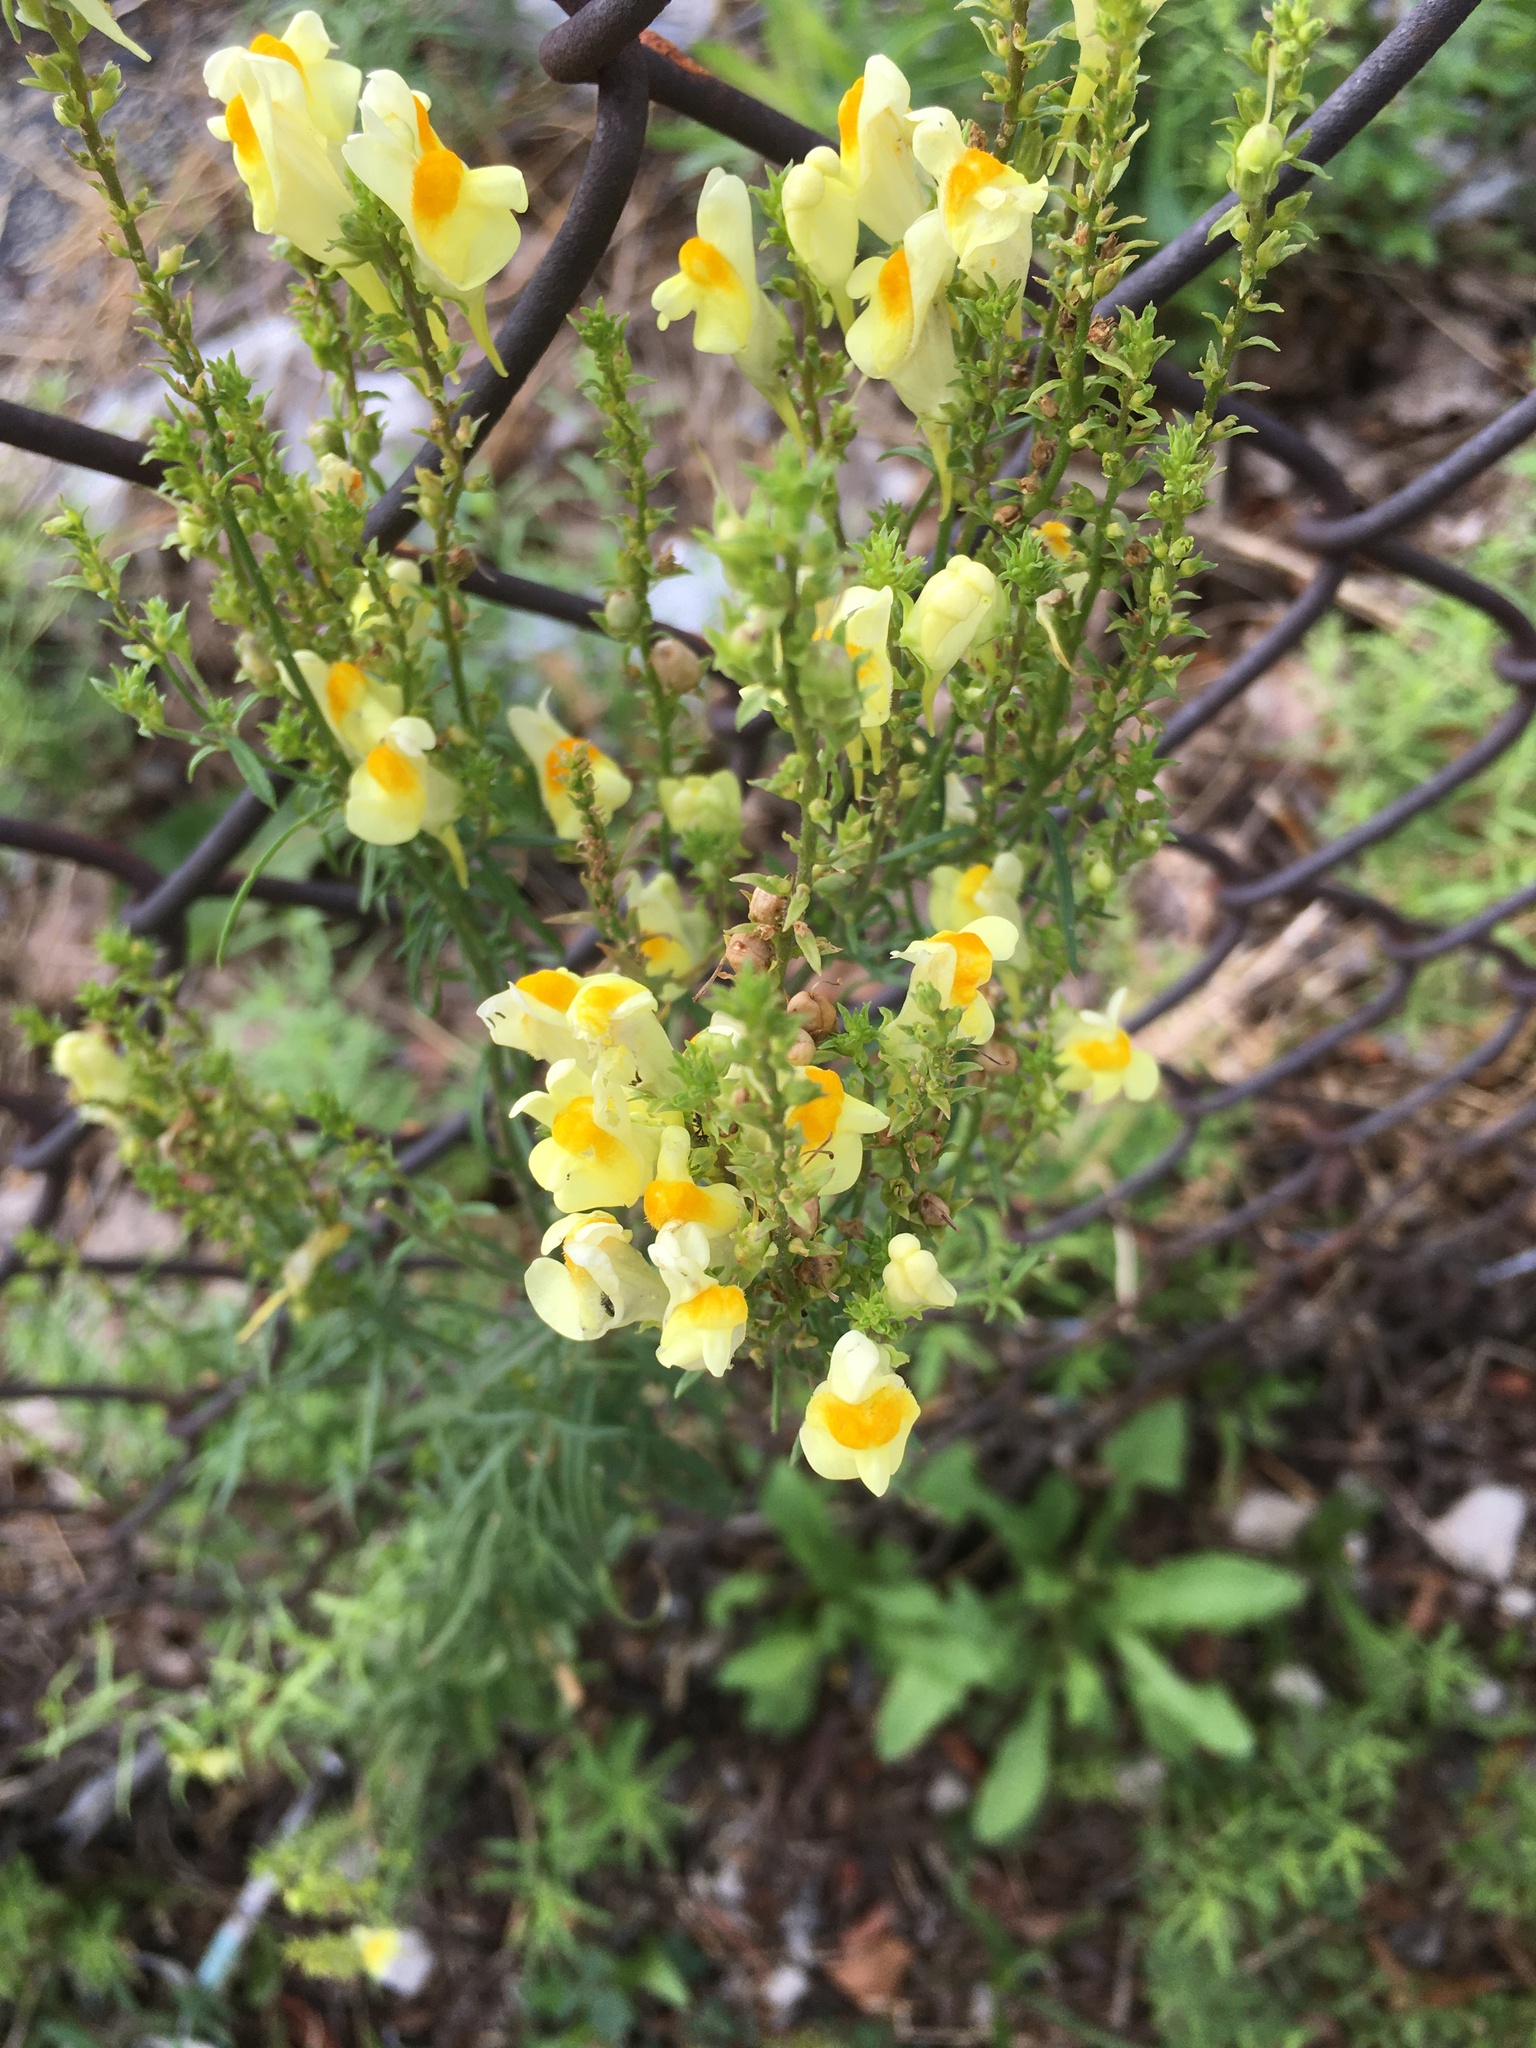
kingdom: Plantae
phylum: Tracheophyta
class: Magnoliopsida
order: Lamiales
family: Plantaginaceae
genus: Linaria
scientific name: Linaria vulgaris
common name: Butter and eggs
